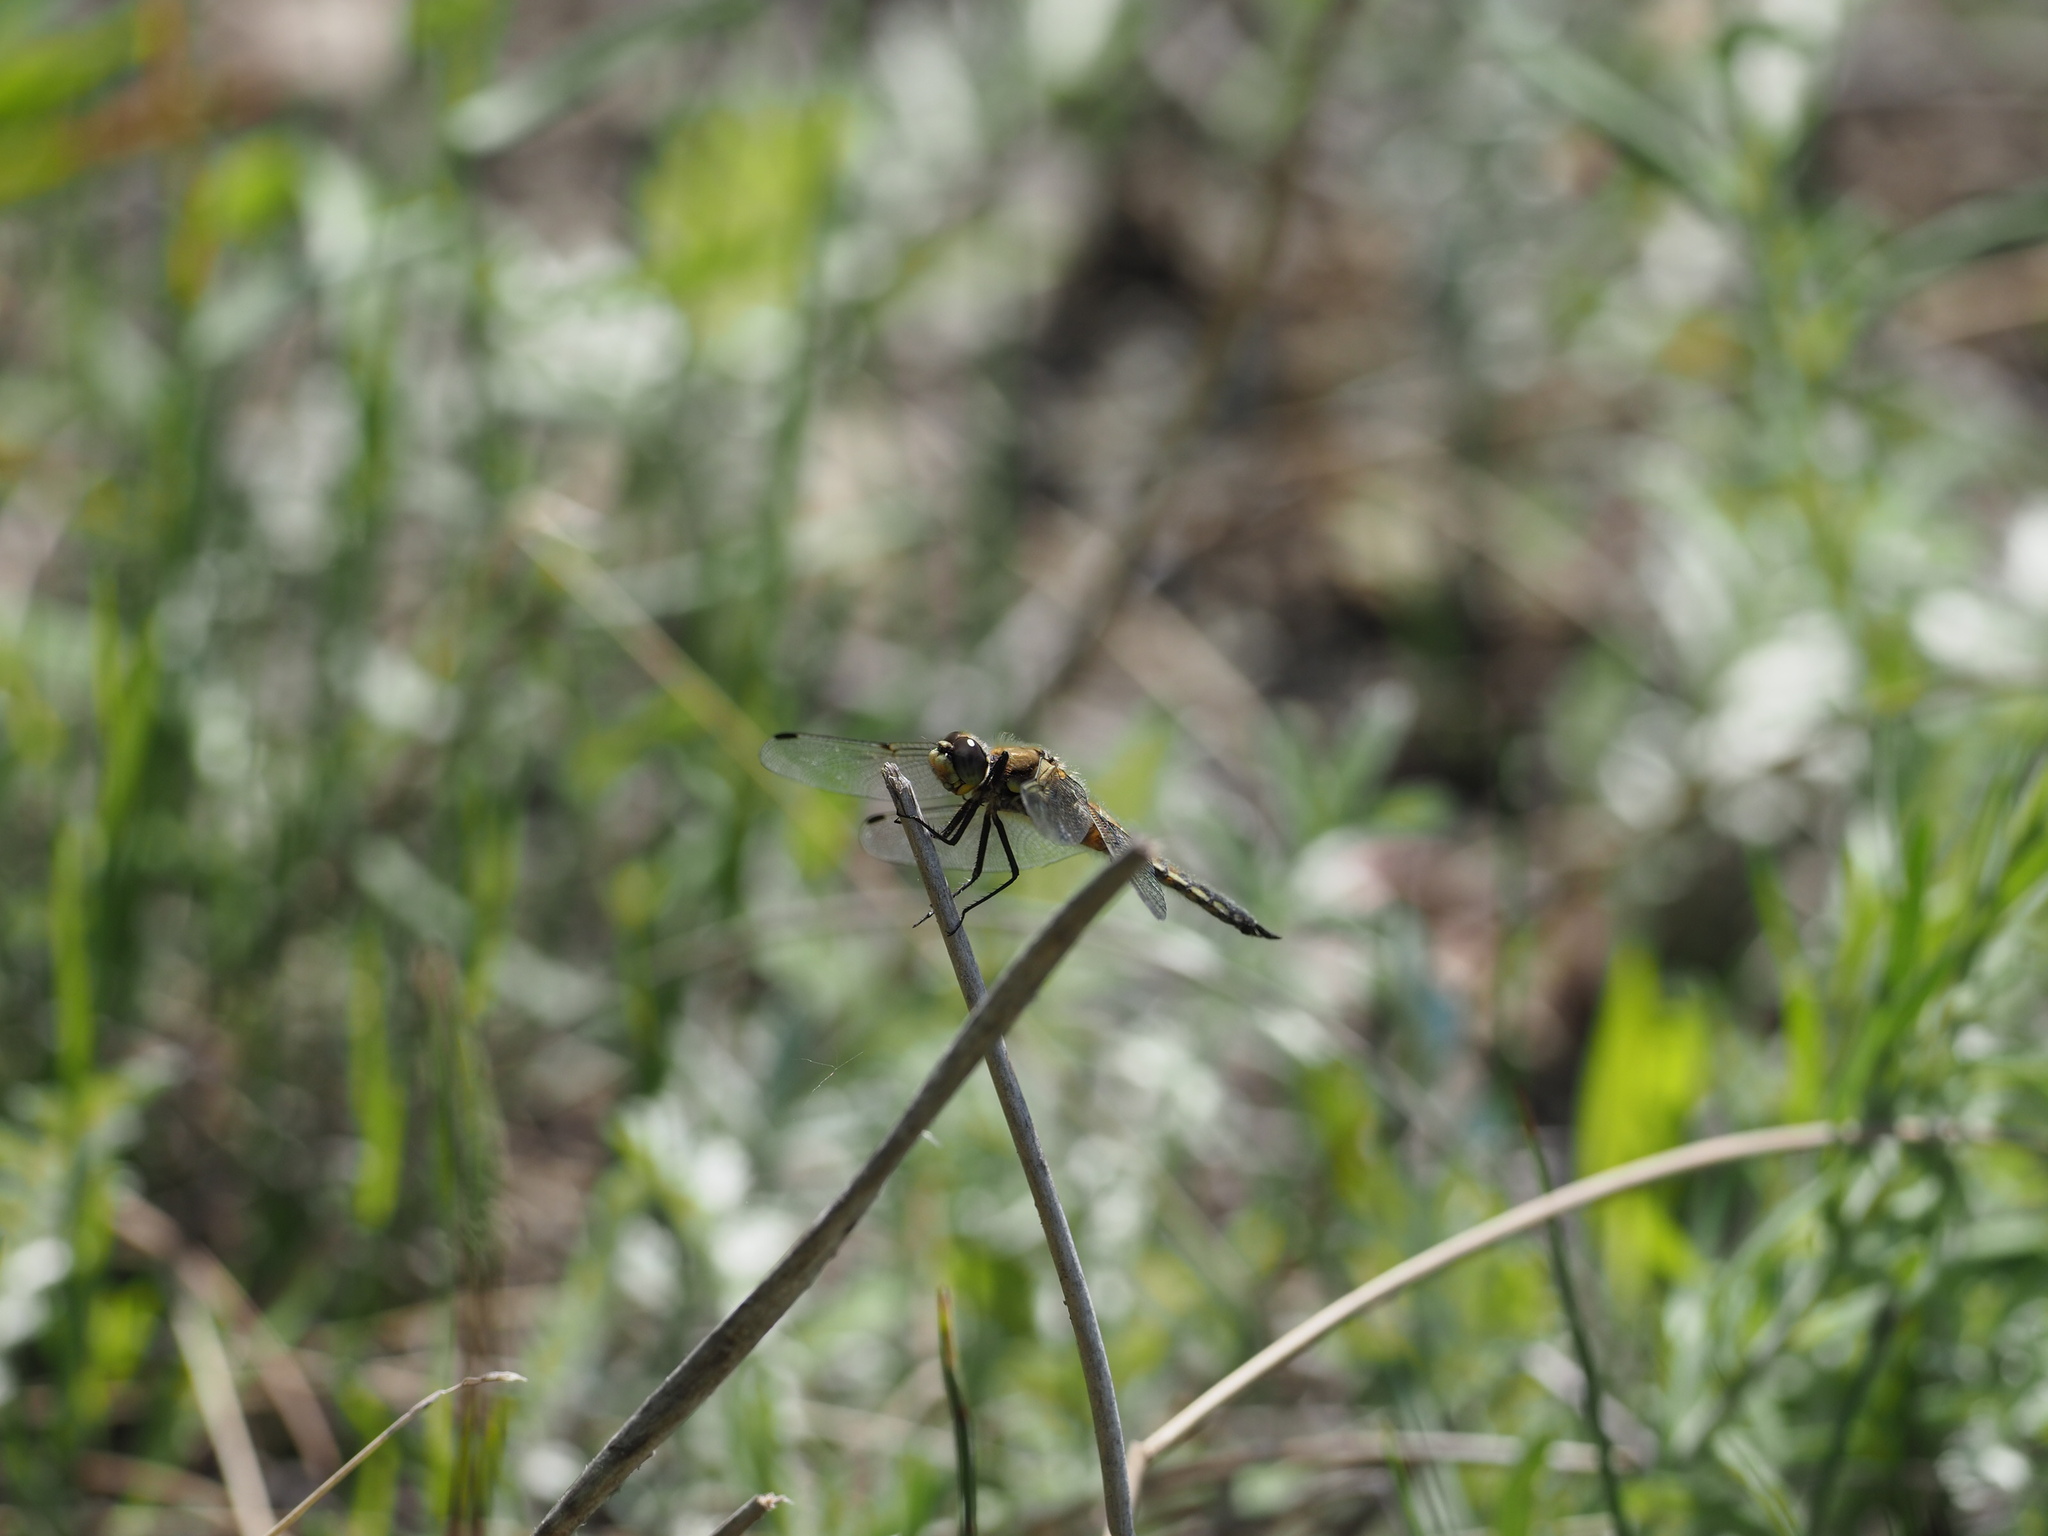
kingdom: Animalia
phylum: Arthropoda
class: Insecta
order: Odonata
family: Libellulidae
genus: Libellula
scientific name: Libellula quadrimaculata
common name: Four-spotted chaser
